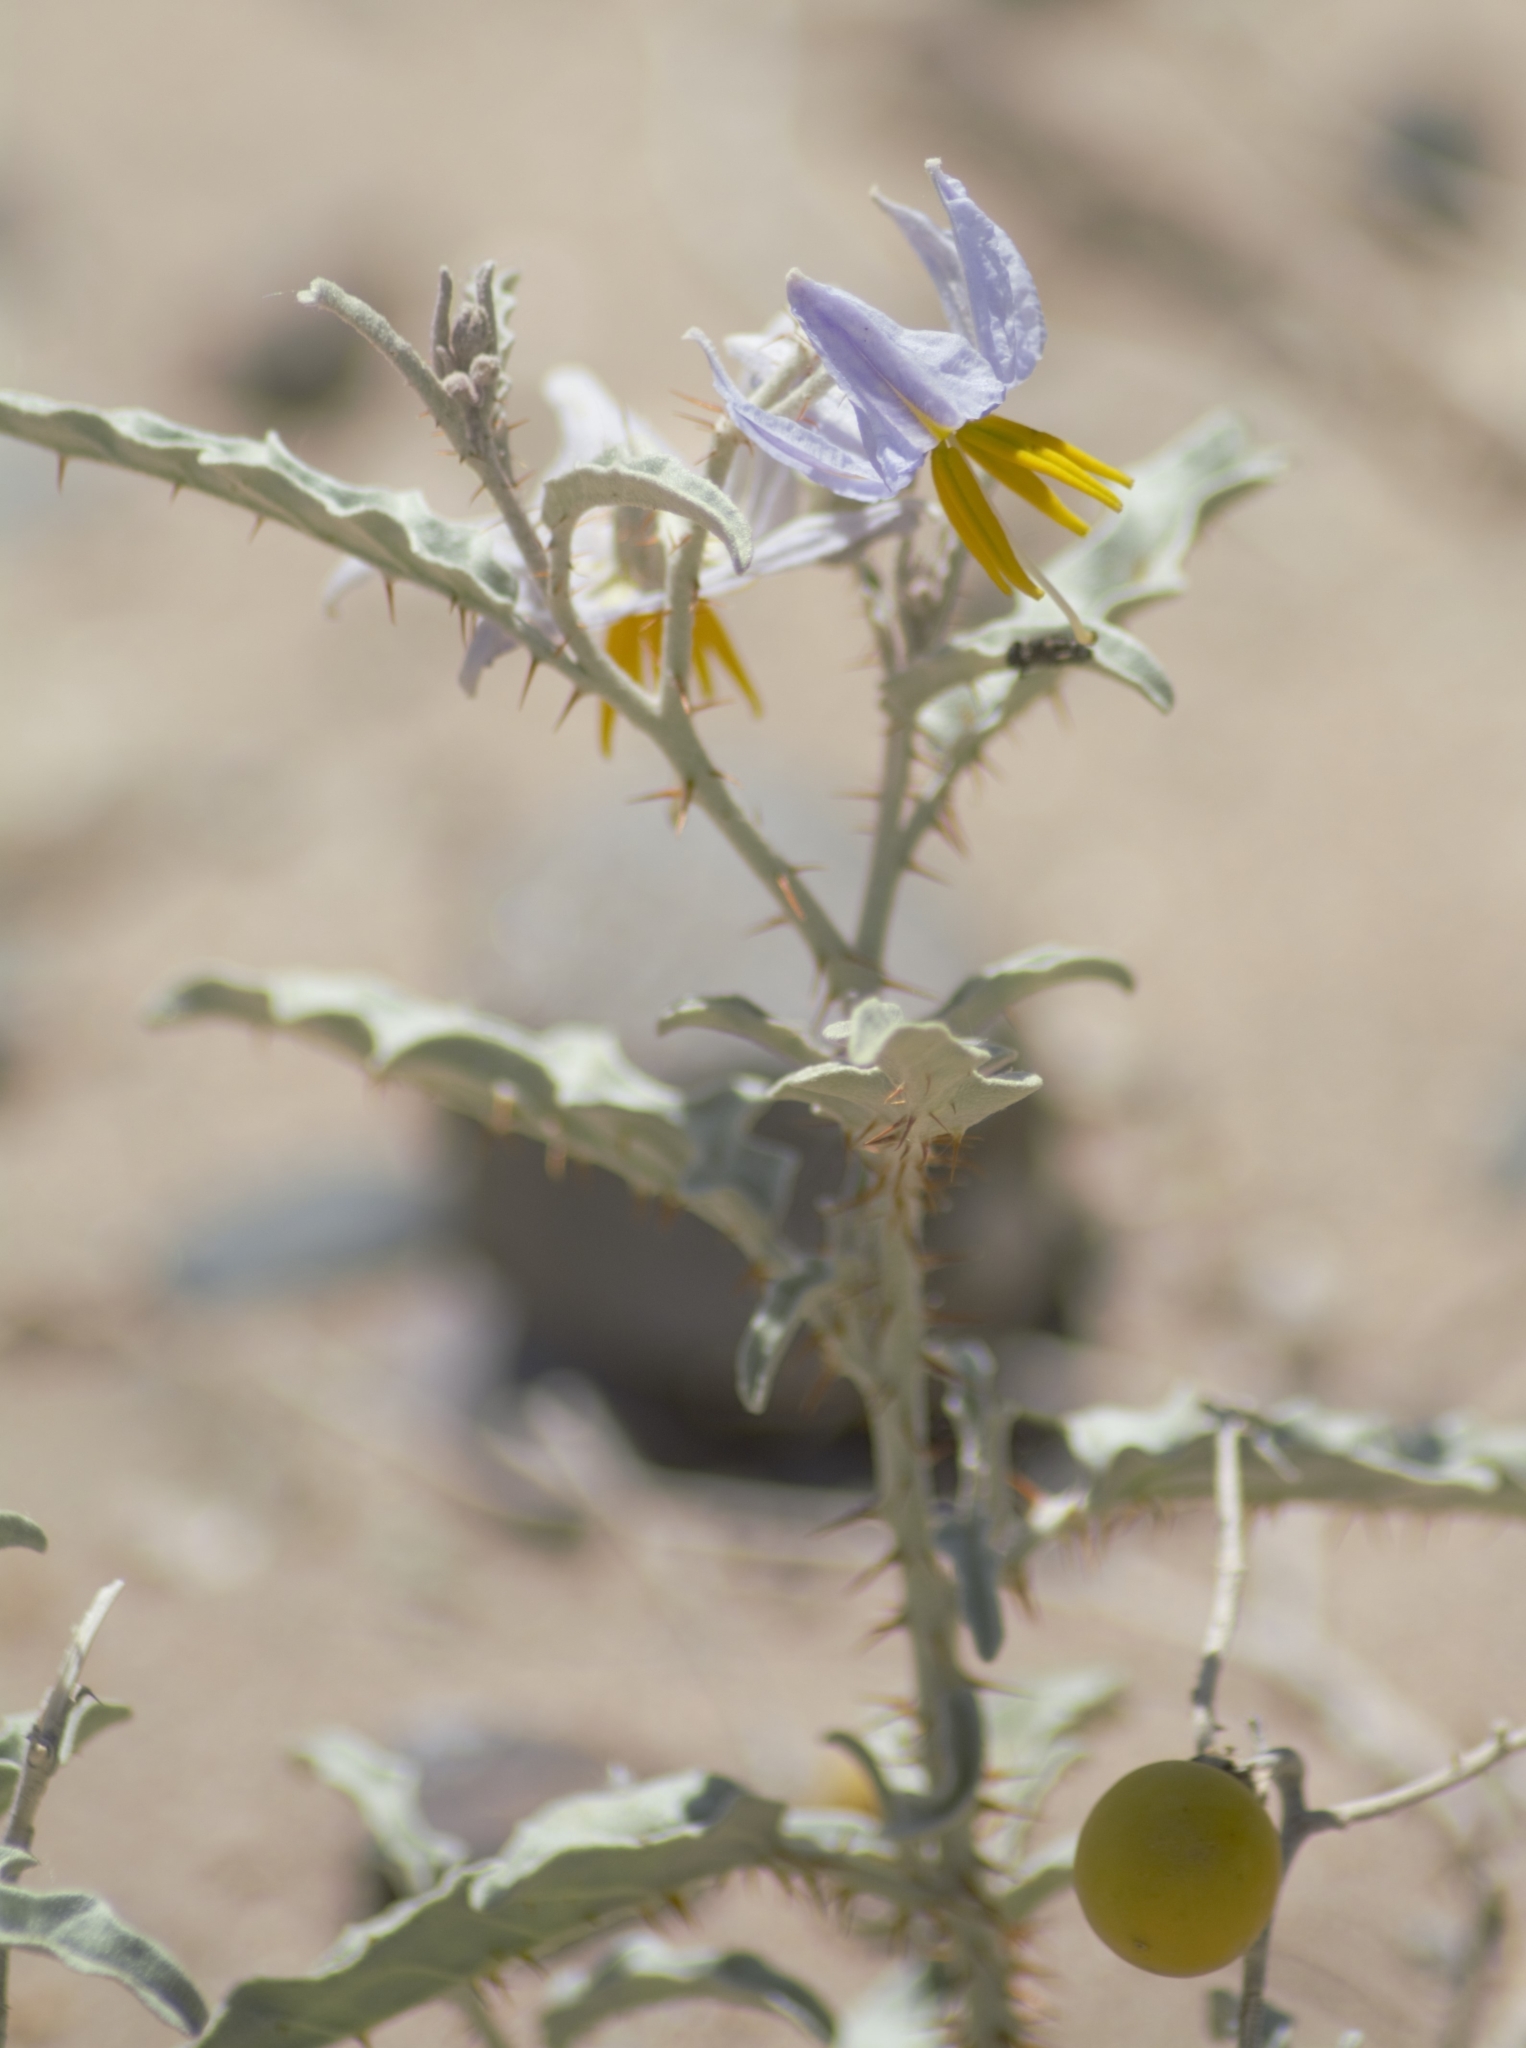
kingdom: Plantae
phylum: Tracheophyta
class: Magnoliopsida
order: Solanales
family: Solanaceae
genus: Solanum
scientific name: Solanum elaeagnifolium
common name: Silverleaf nightshade
